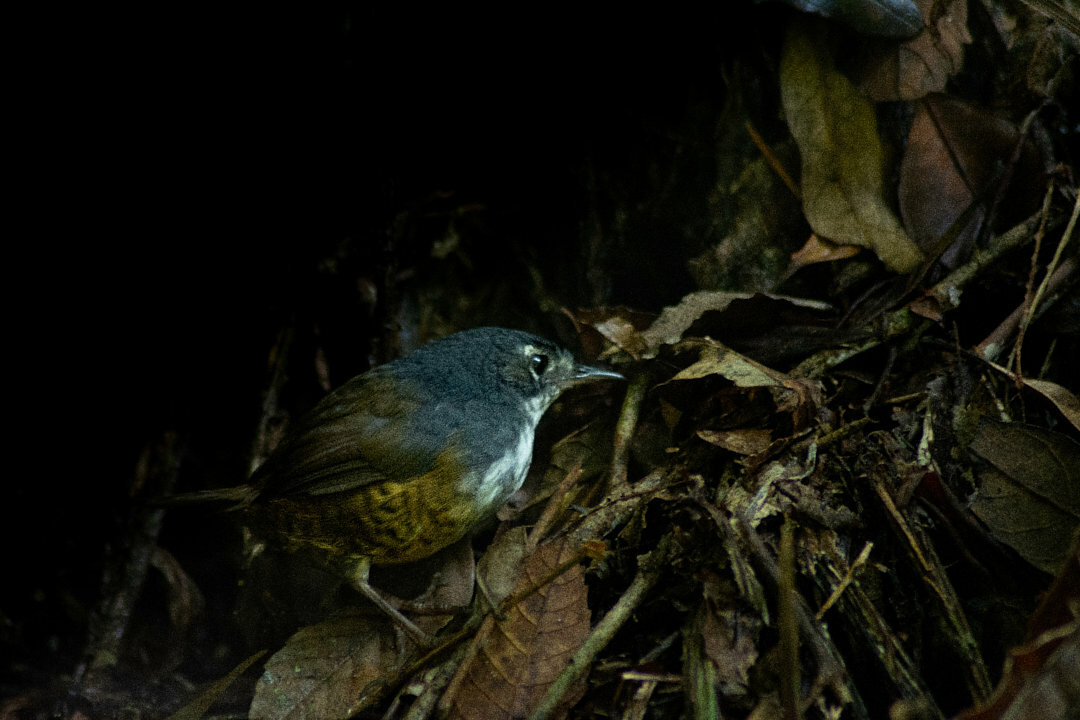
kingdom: Animalia
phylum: Chordata
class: Aves
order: Passeriformes
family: Rhinocryptidae
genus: Eleoscytalopus
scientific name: Eleoscytalopus indigoticus
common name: White-breasted tapaculo
